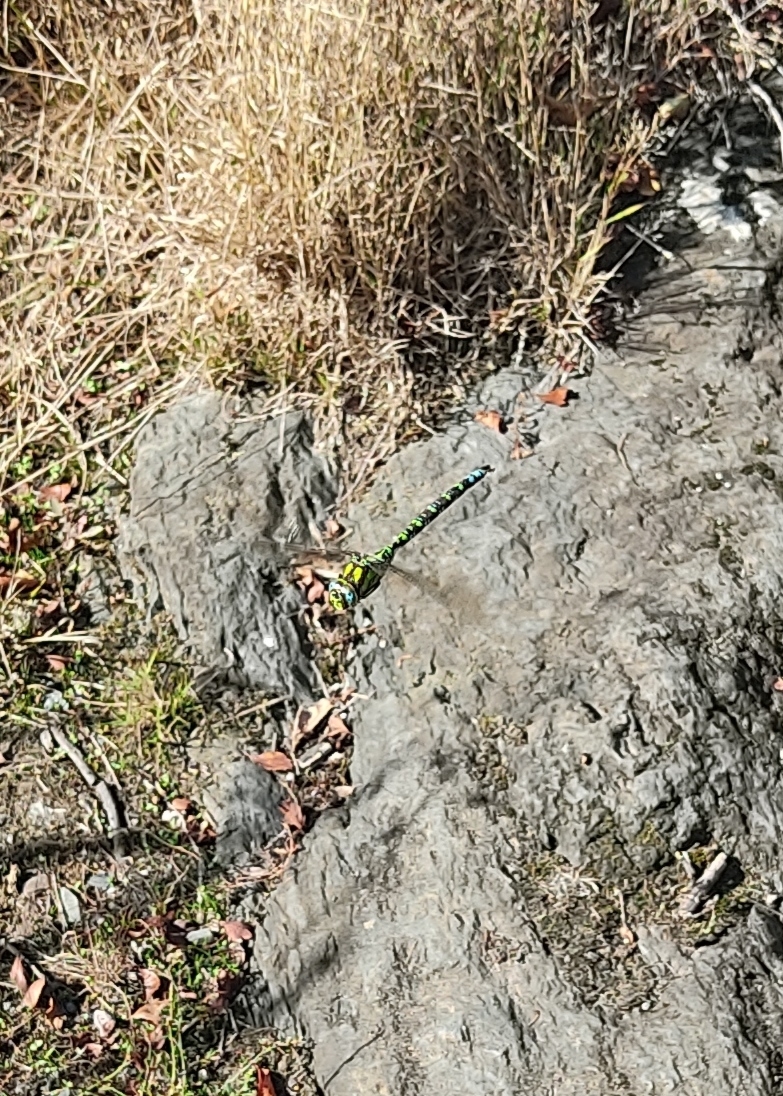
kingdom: Animalia
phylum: Arthropoda
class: Insecta
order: Odonata
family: Aeshnidae
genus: Aeshna
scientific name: Aeshna cyanea
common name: Southern hawker
